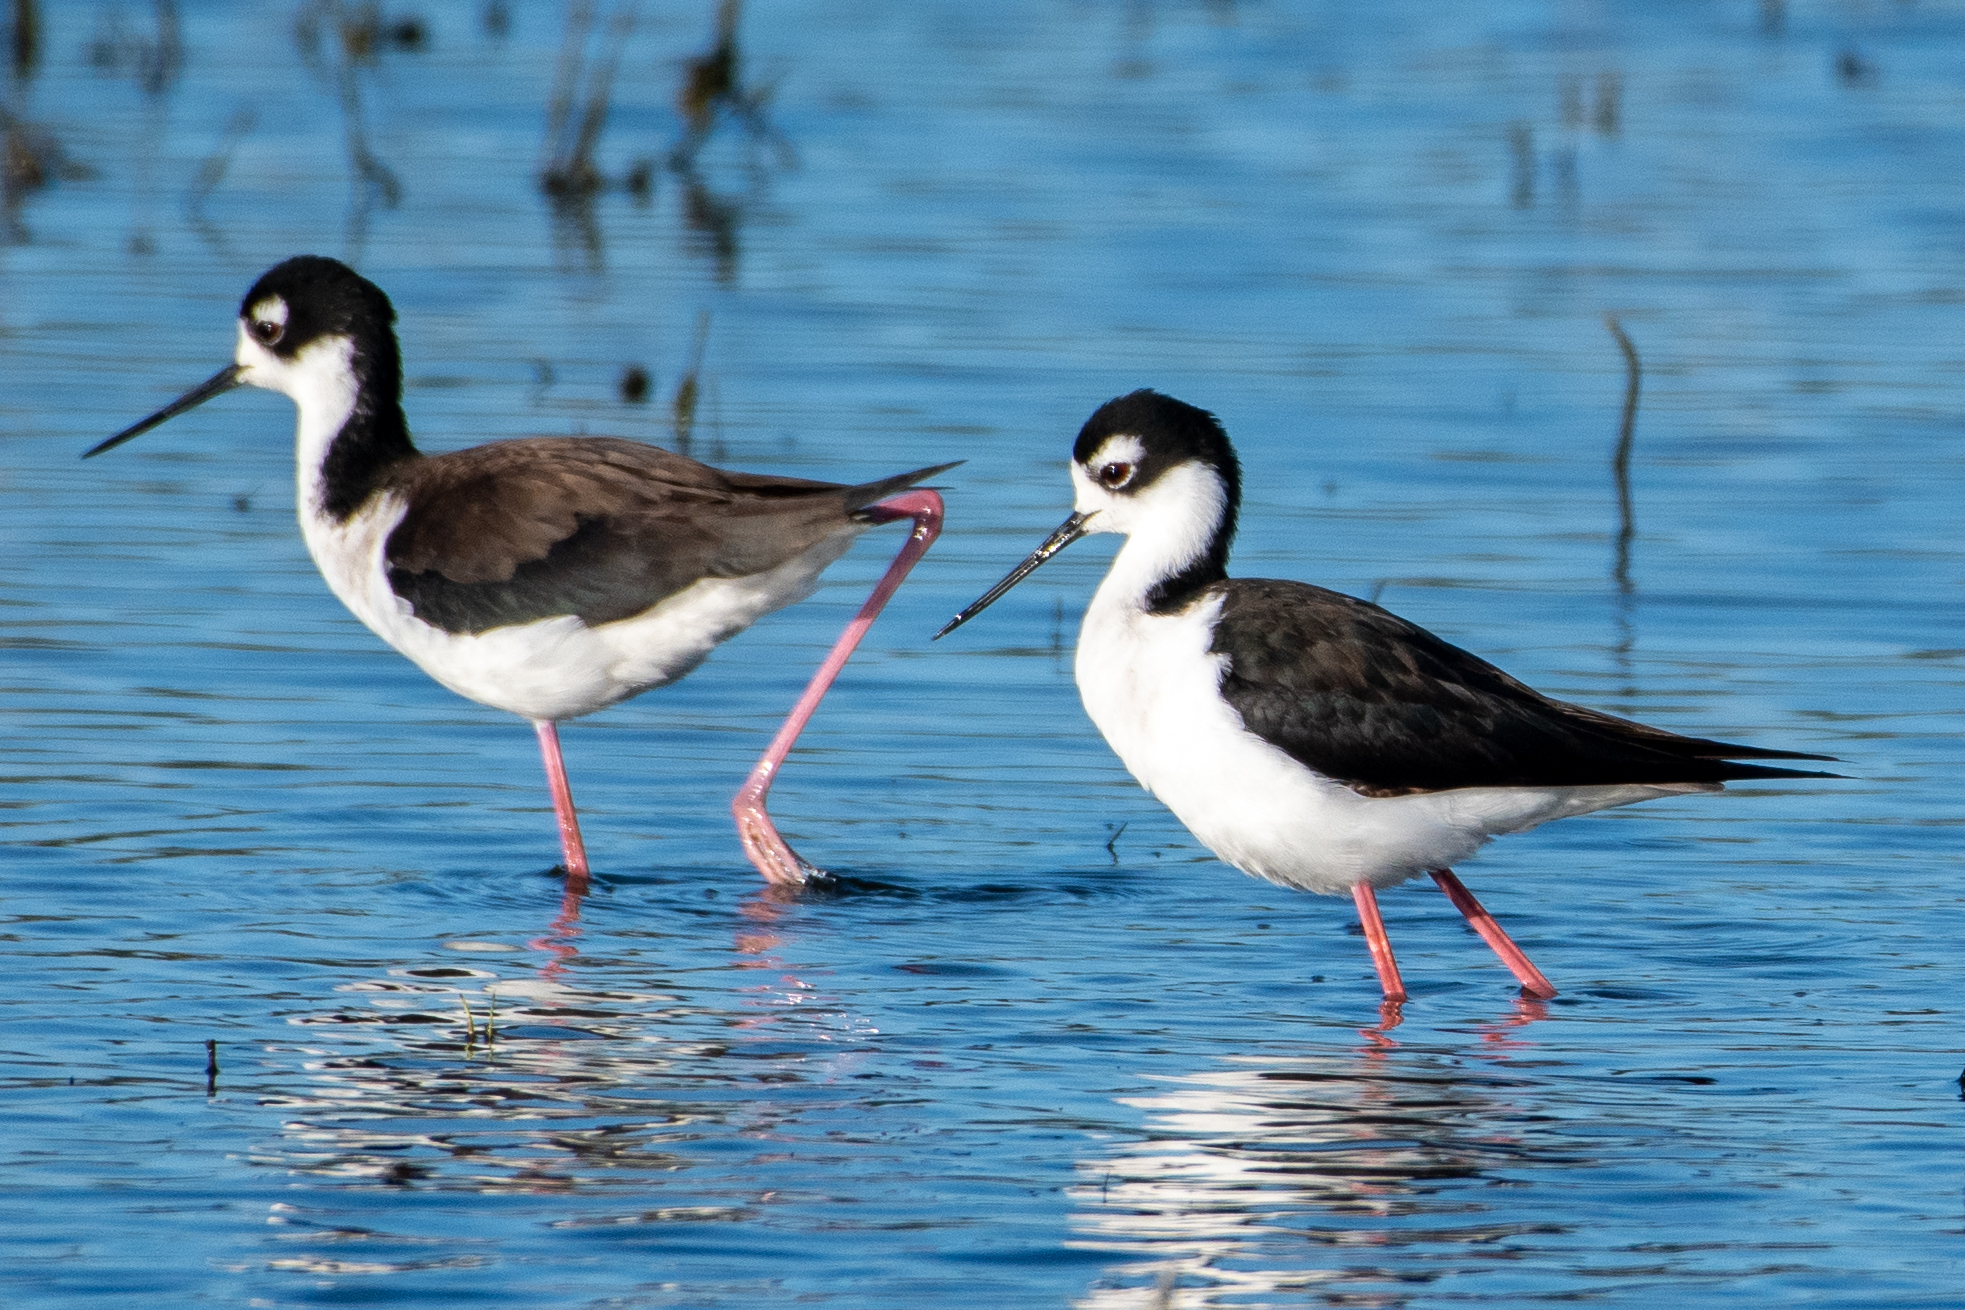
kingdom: Animalia
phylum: Chordata
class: Aves
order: Charadriiformes
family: Recurvirostridae
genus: Himantopus
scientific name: Himantopus mexicanus
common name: Black-necked stilt
